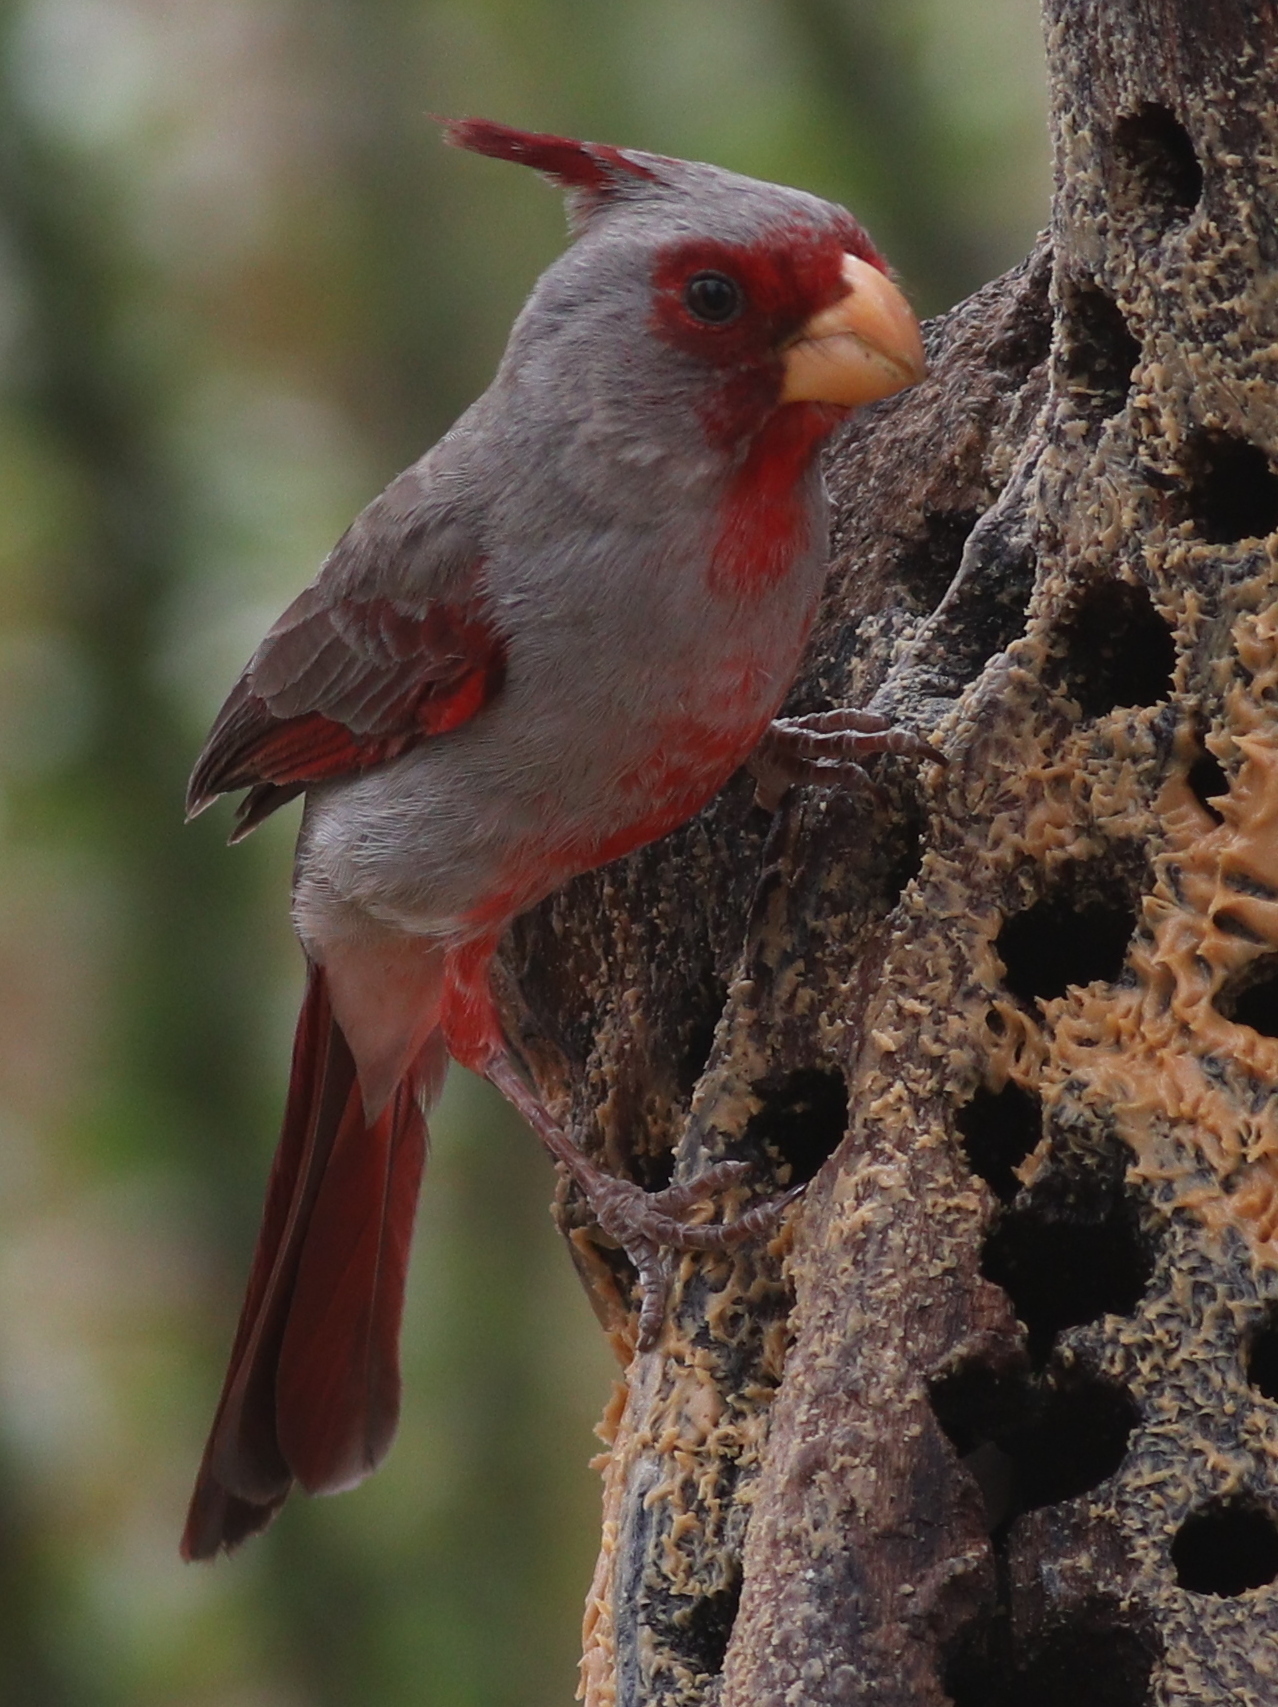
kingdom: Animalia
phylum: Chordata
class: Aves
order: Passeriformes
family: Cardinalidae
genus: Cardinalis
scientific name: Cardinalis sinuatus
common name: Pyrrhuloxia
